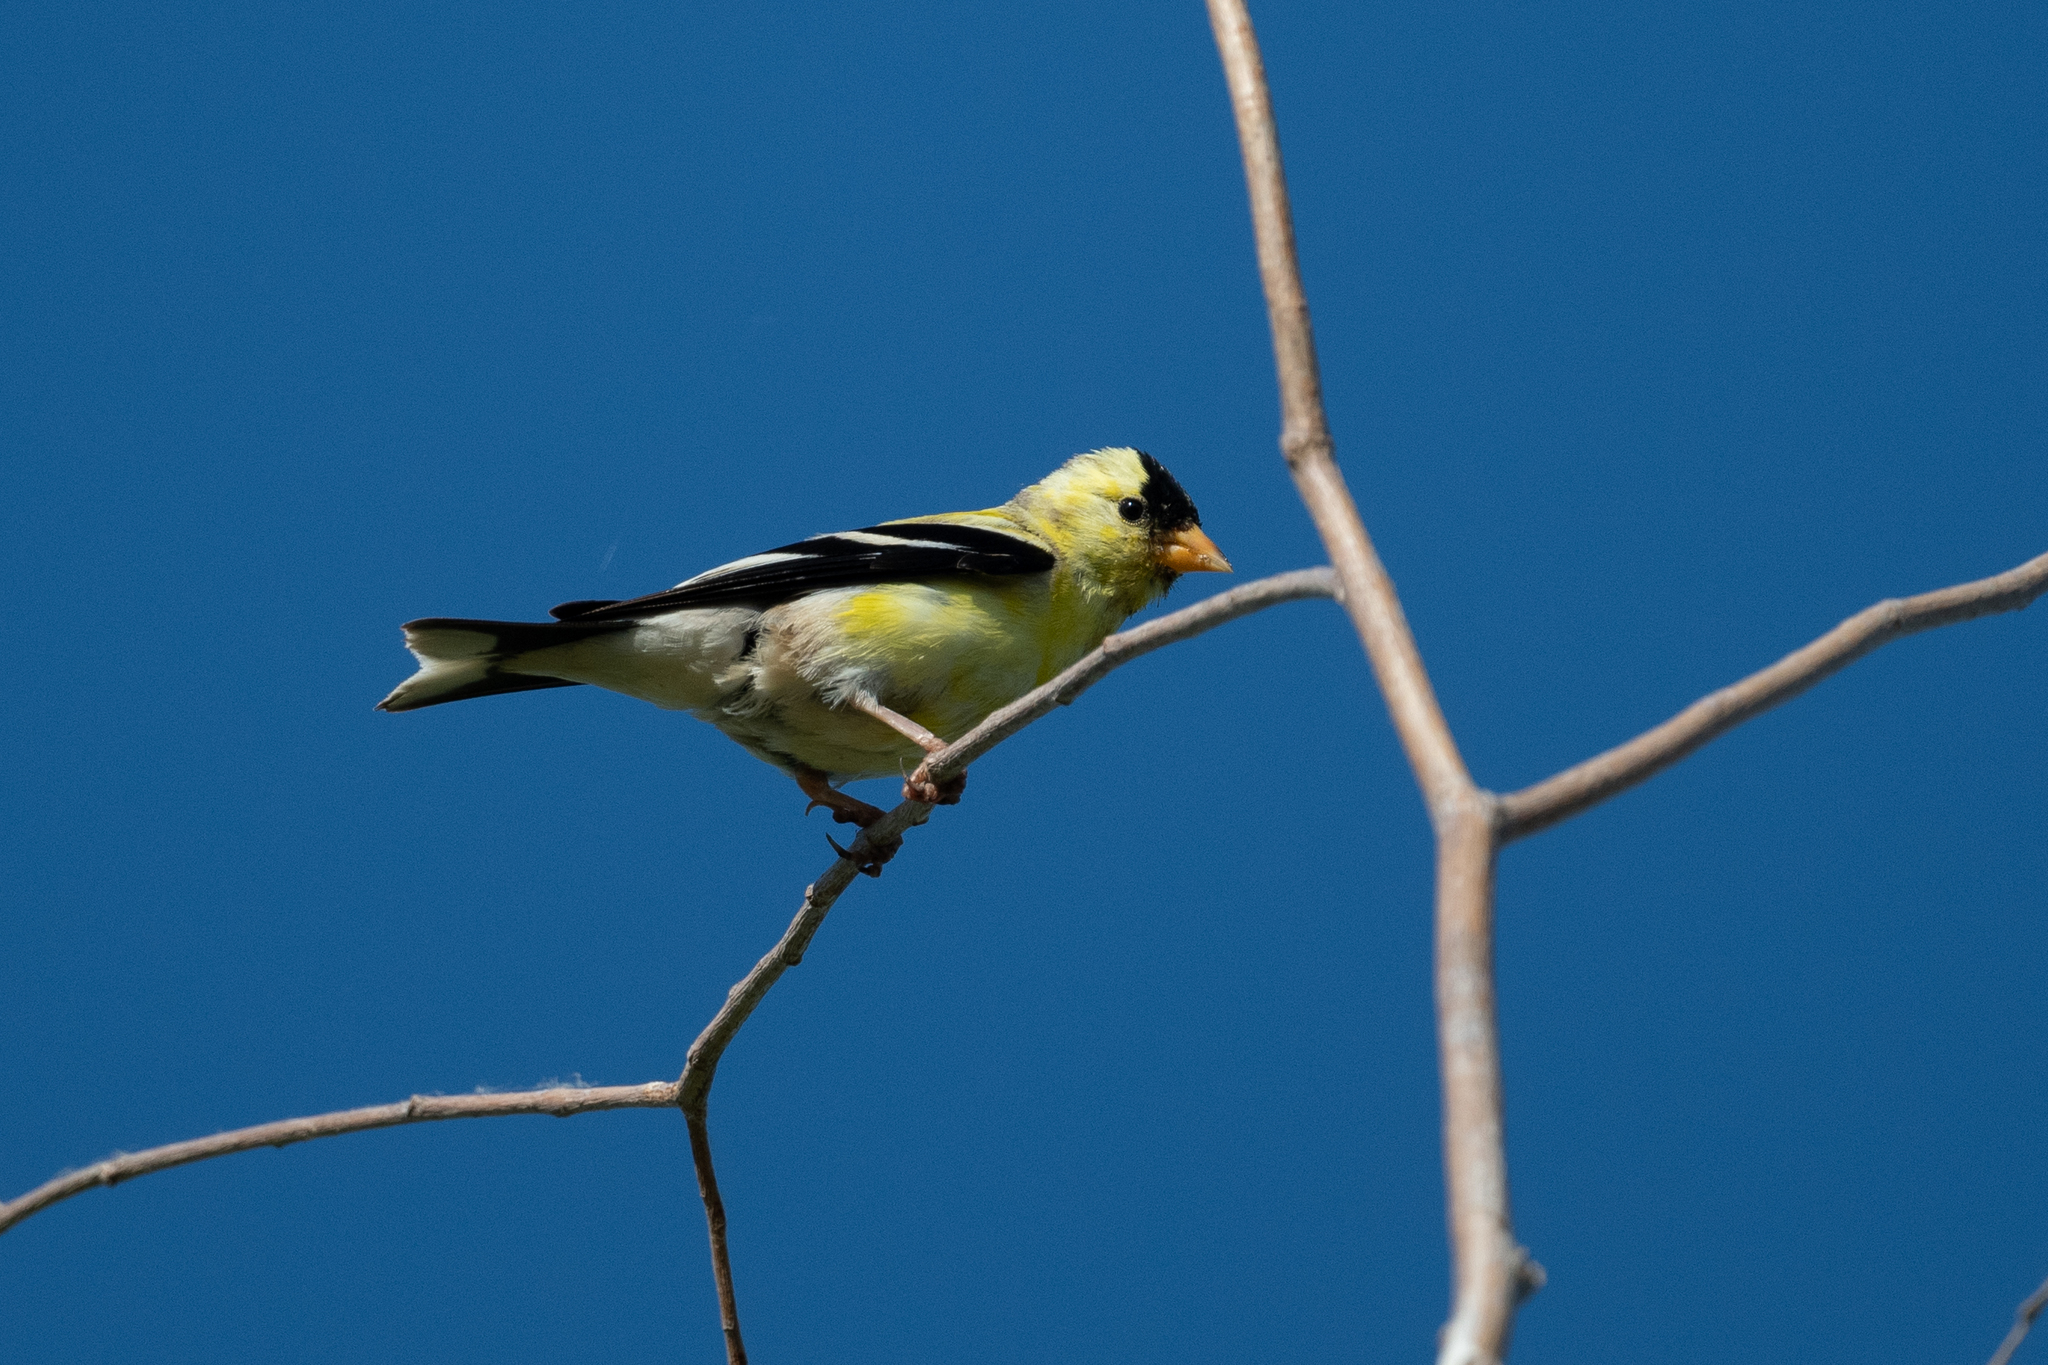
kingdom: Animalia
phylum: Chordata
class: Aves
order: Passeriformes
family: Fringillidae
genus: Spinus
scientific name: Spinus tristis
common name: American goldfinch
